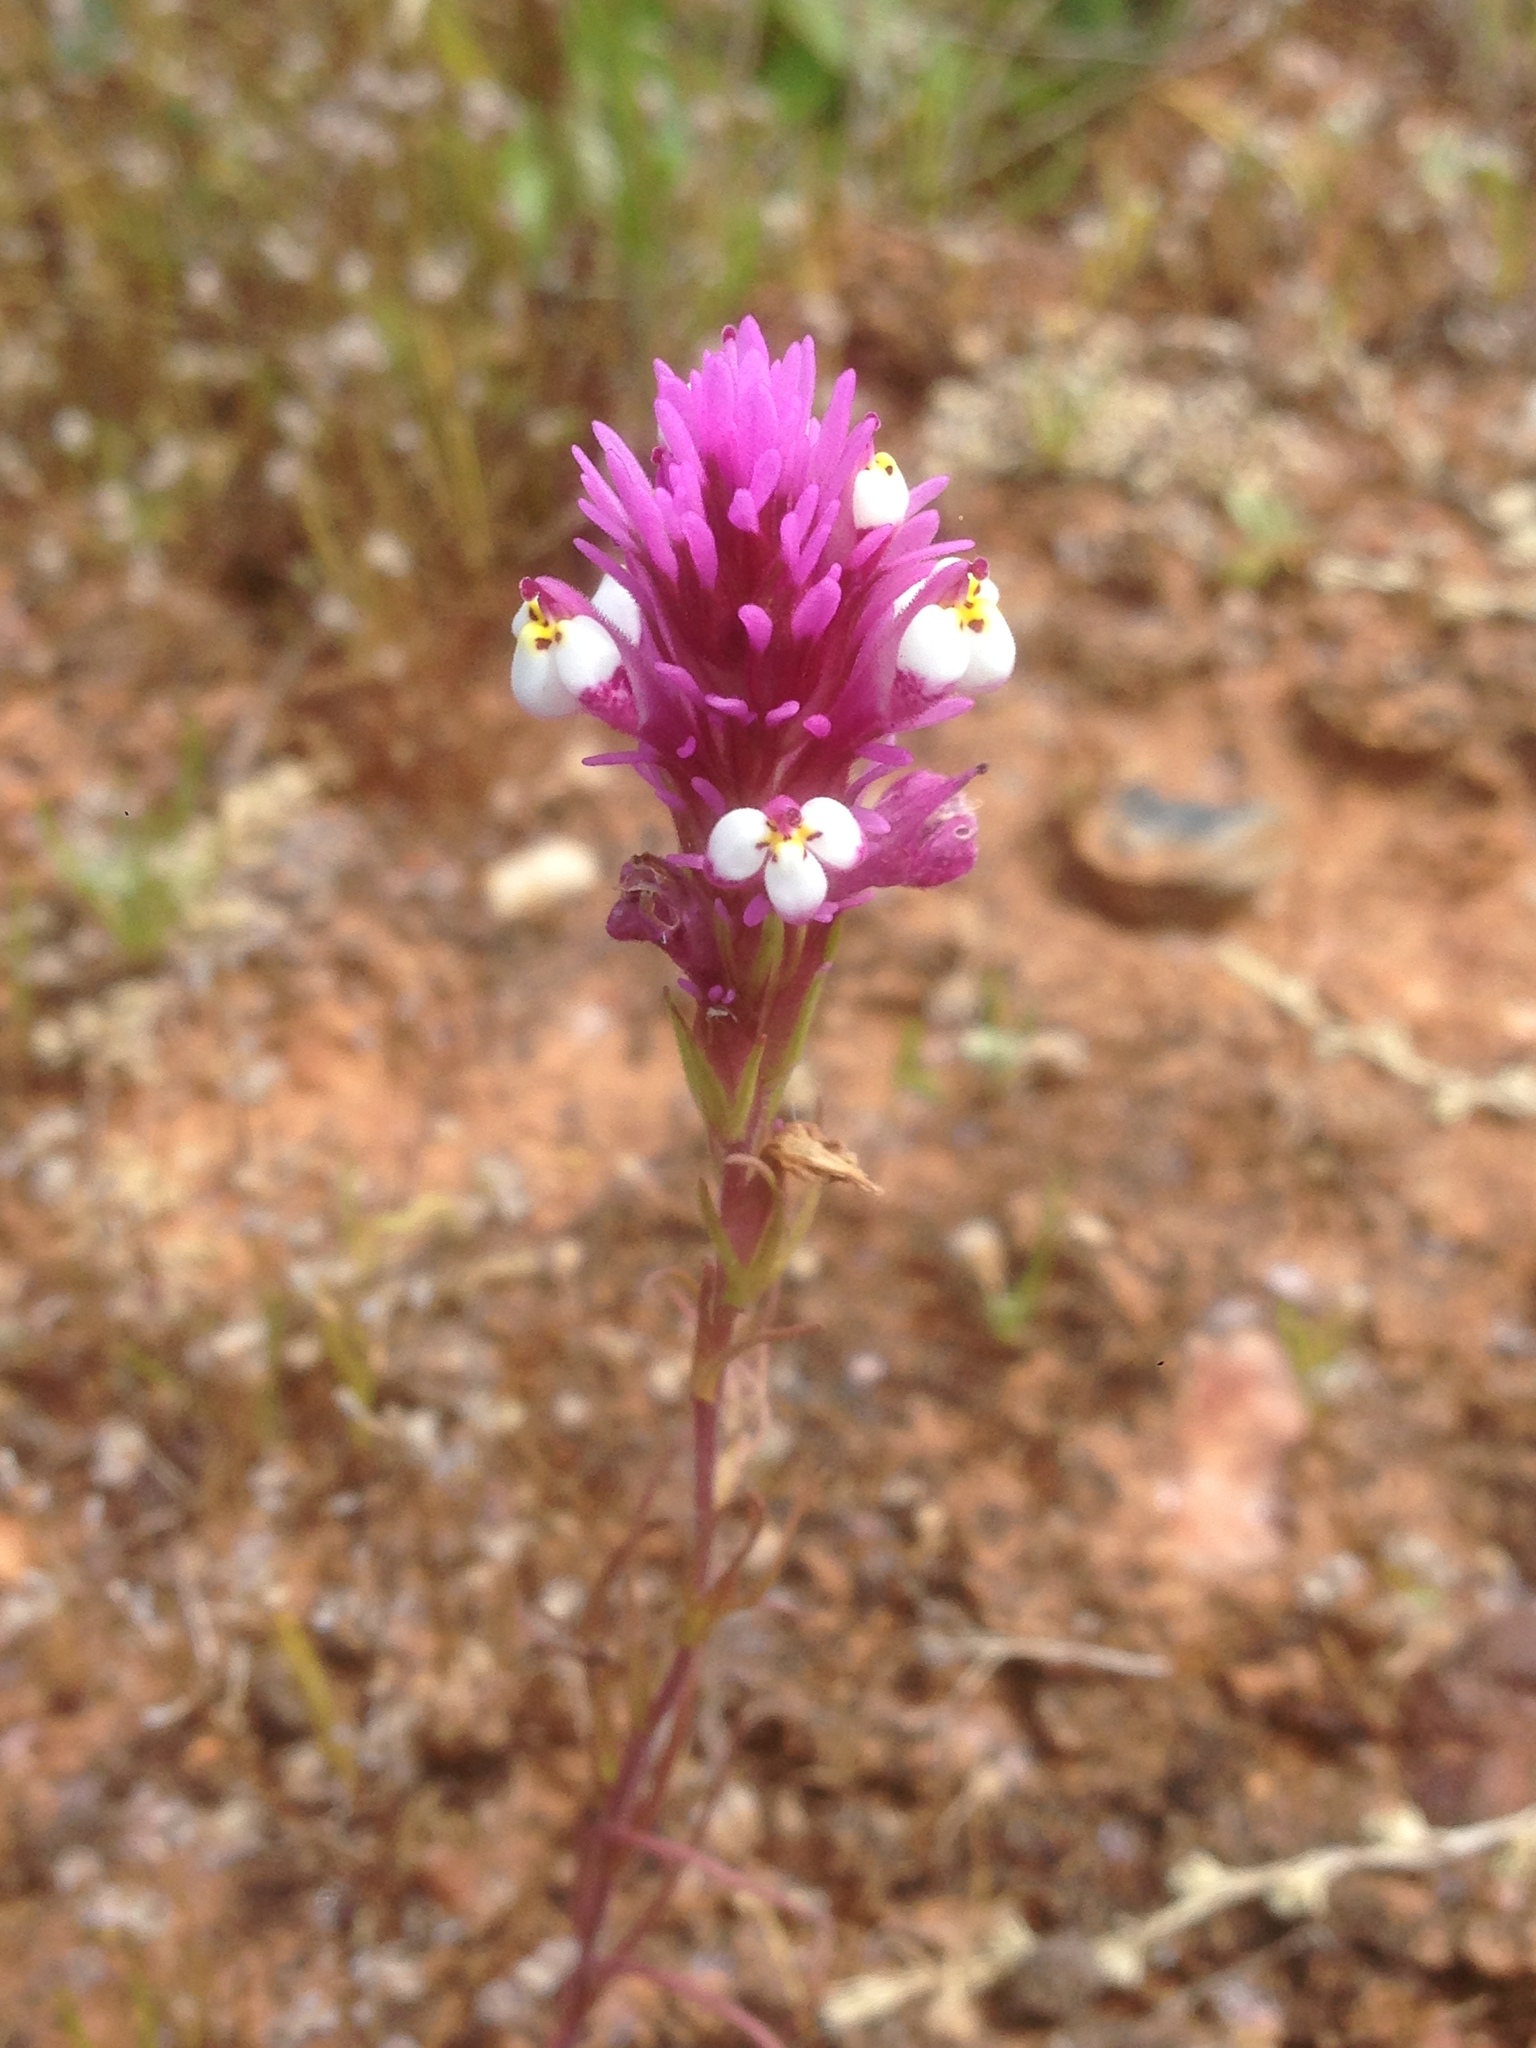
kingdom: Plantae
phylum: Tracheophyta
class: Magnoliopsida
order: Lamiales
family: Orobanchaceae
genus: Castilleja
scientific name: Castilleja densiflora
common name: Dense-flower indian paintbrush
